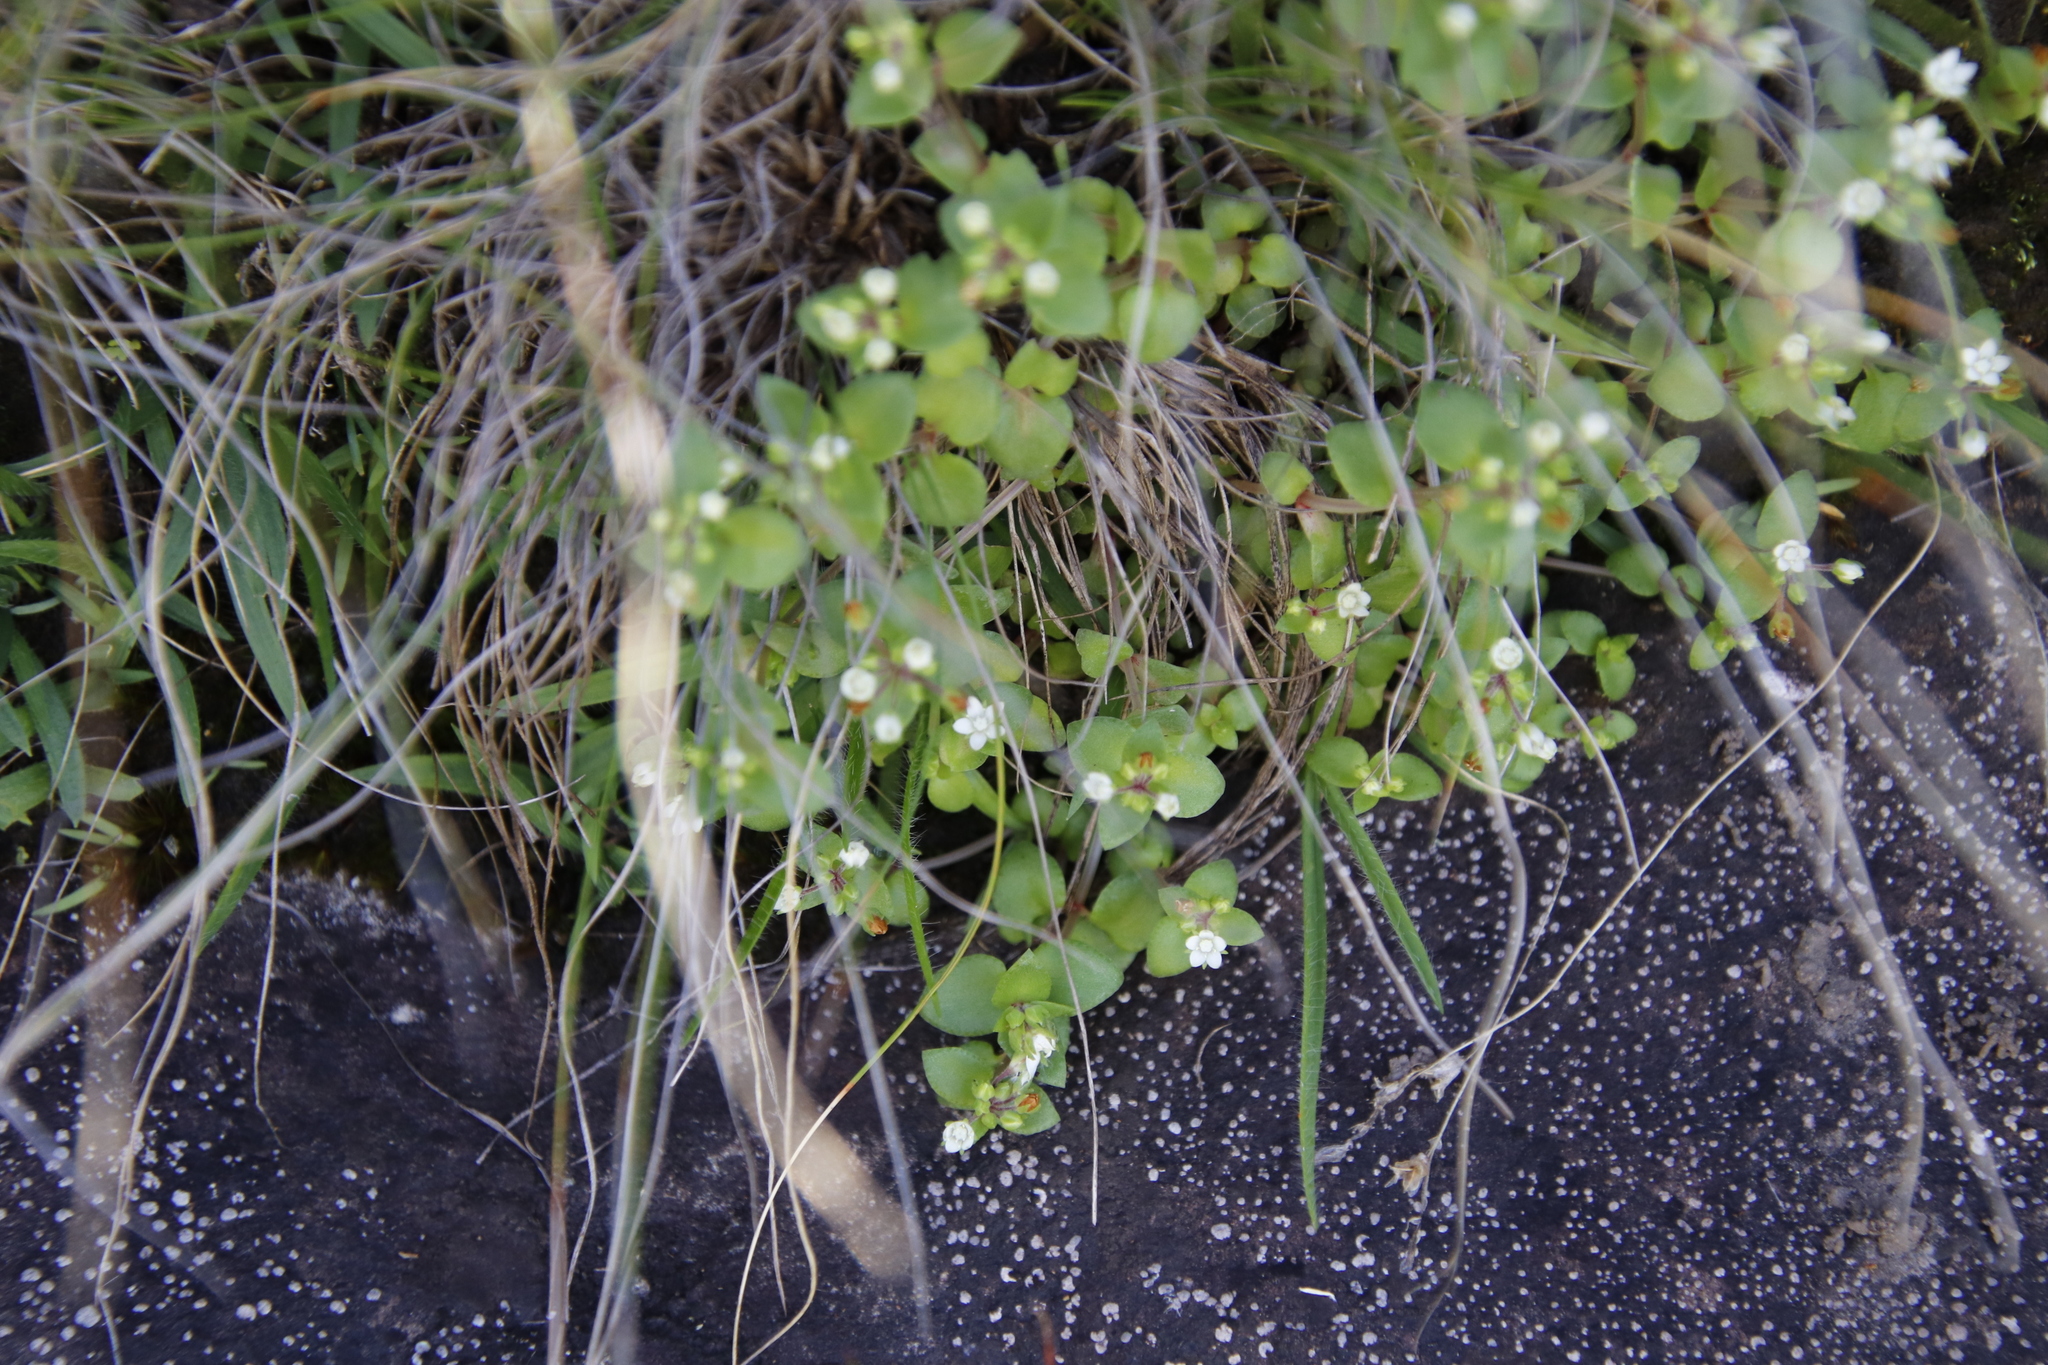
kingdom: Plantae
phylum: Tracheophyta
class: Magnoliopsida
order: Saxifragales
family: Crassulaceae
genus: Crassula
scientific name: Crassula pellucida
